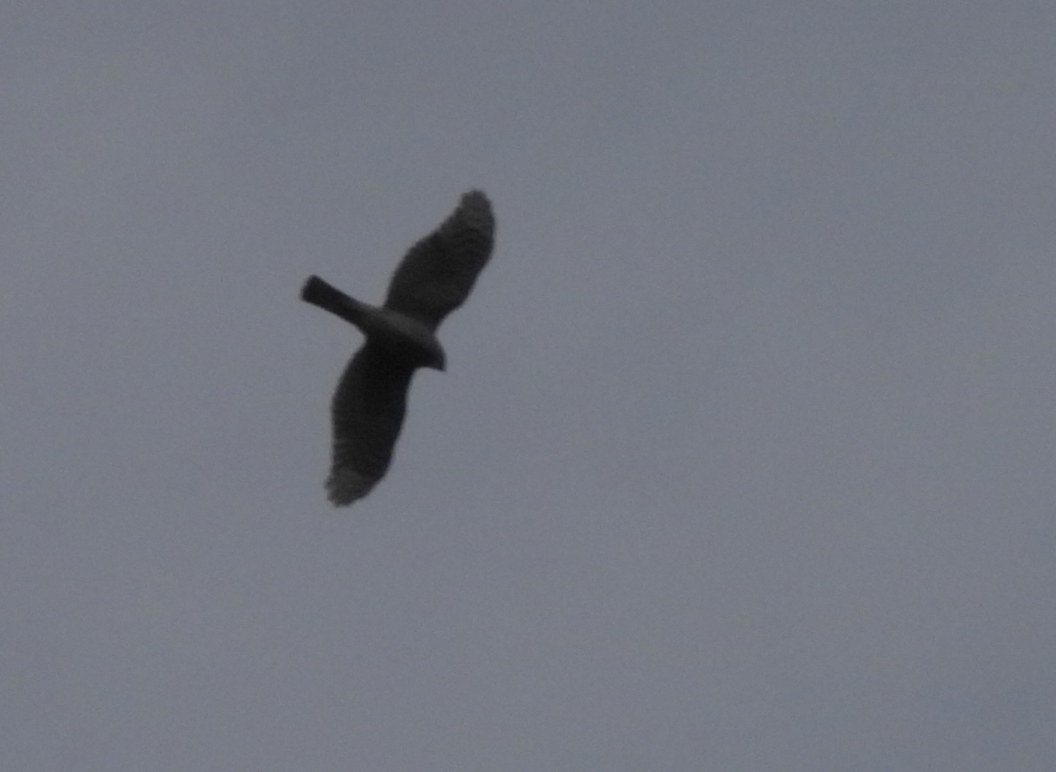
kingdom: Animalia
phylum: Chordata
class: Aves
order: Accipitriformes
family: Accipitridae
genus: Accipiter
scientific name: Accipiter striatus
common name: Sharp-shinned hawk
